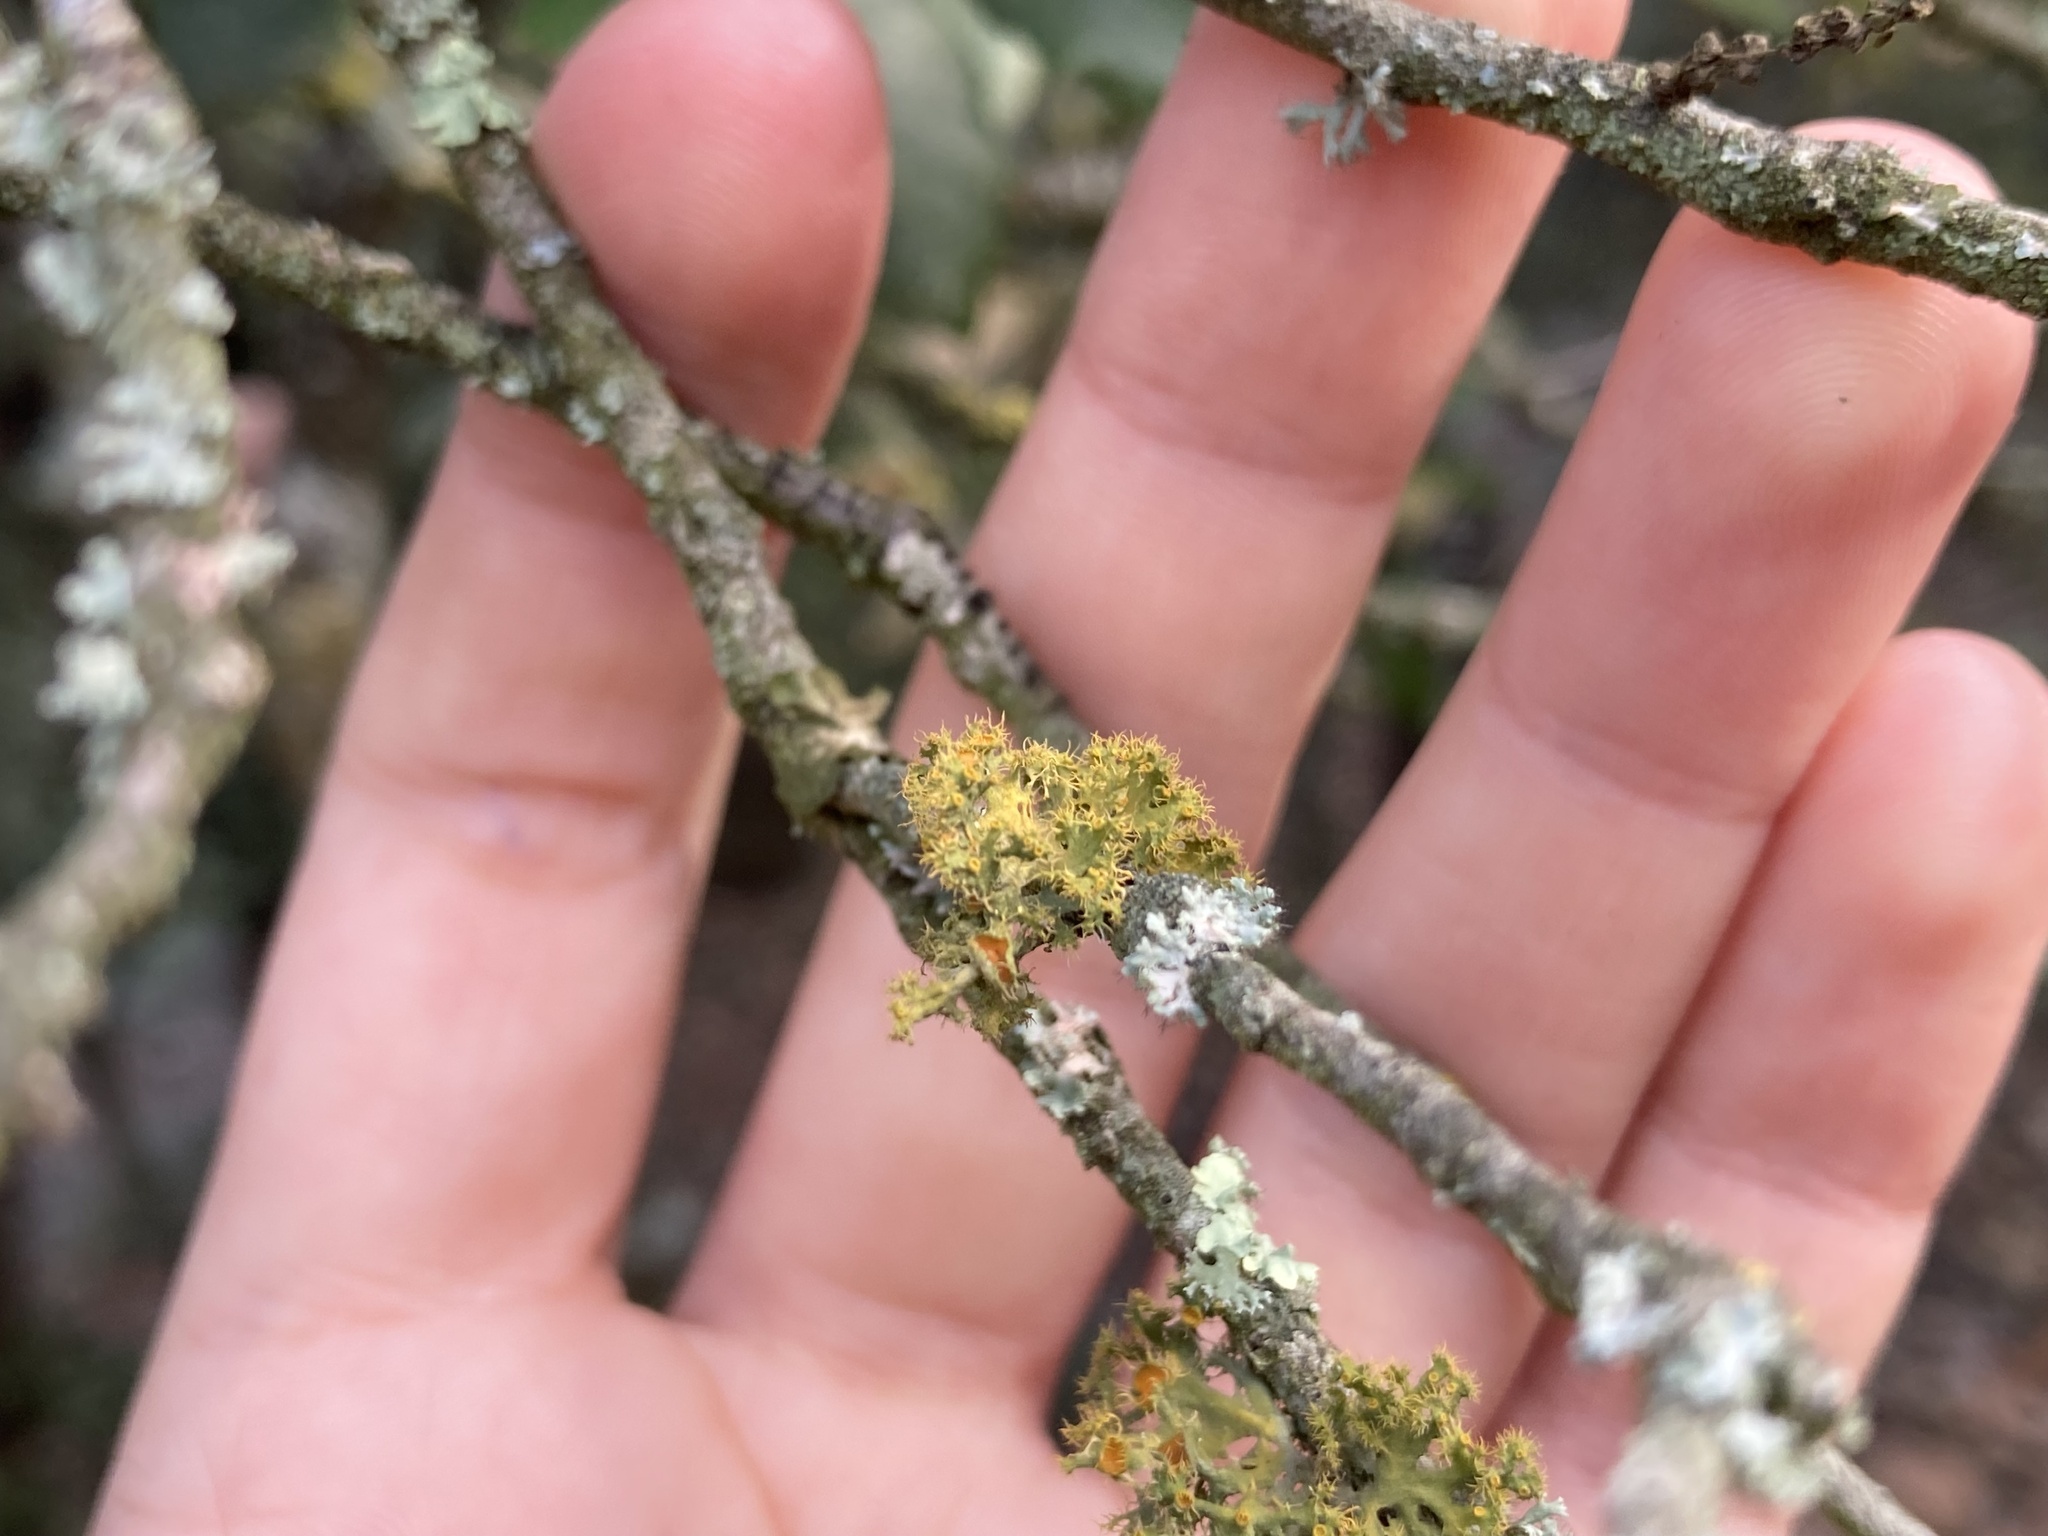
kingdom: Fungi
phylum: Ascomycota
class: Lecanoromycetes
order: Teloschistales
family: Teloschistaceae
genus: Niorma
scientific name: Niorma chrysophthalma
